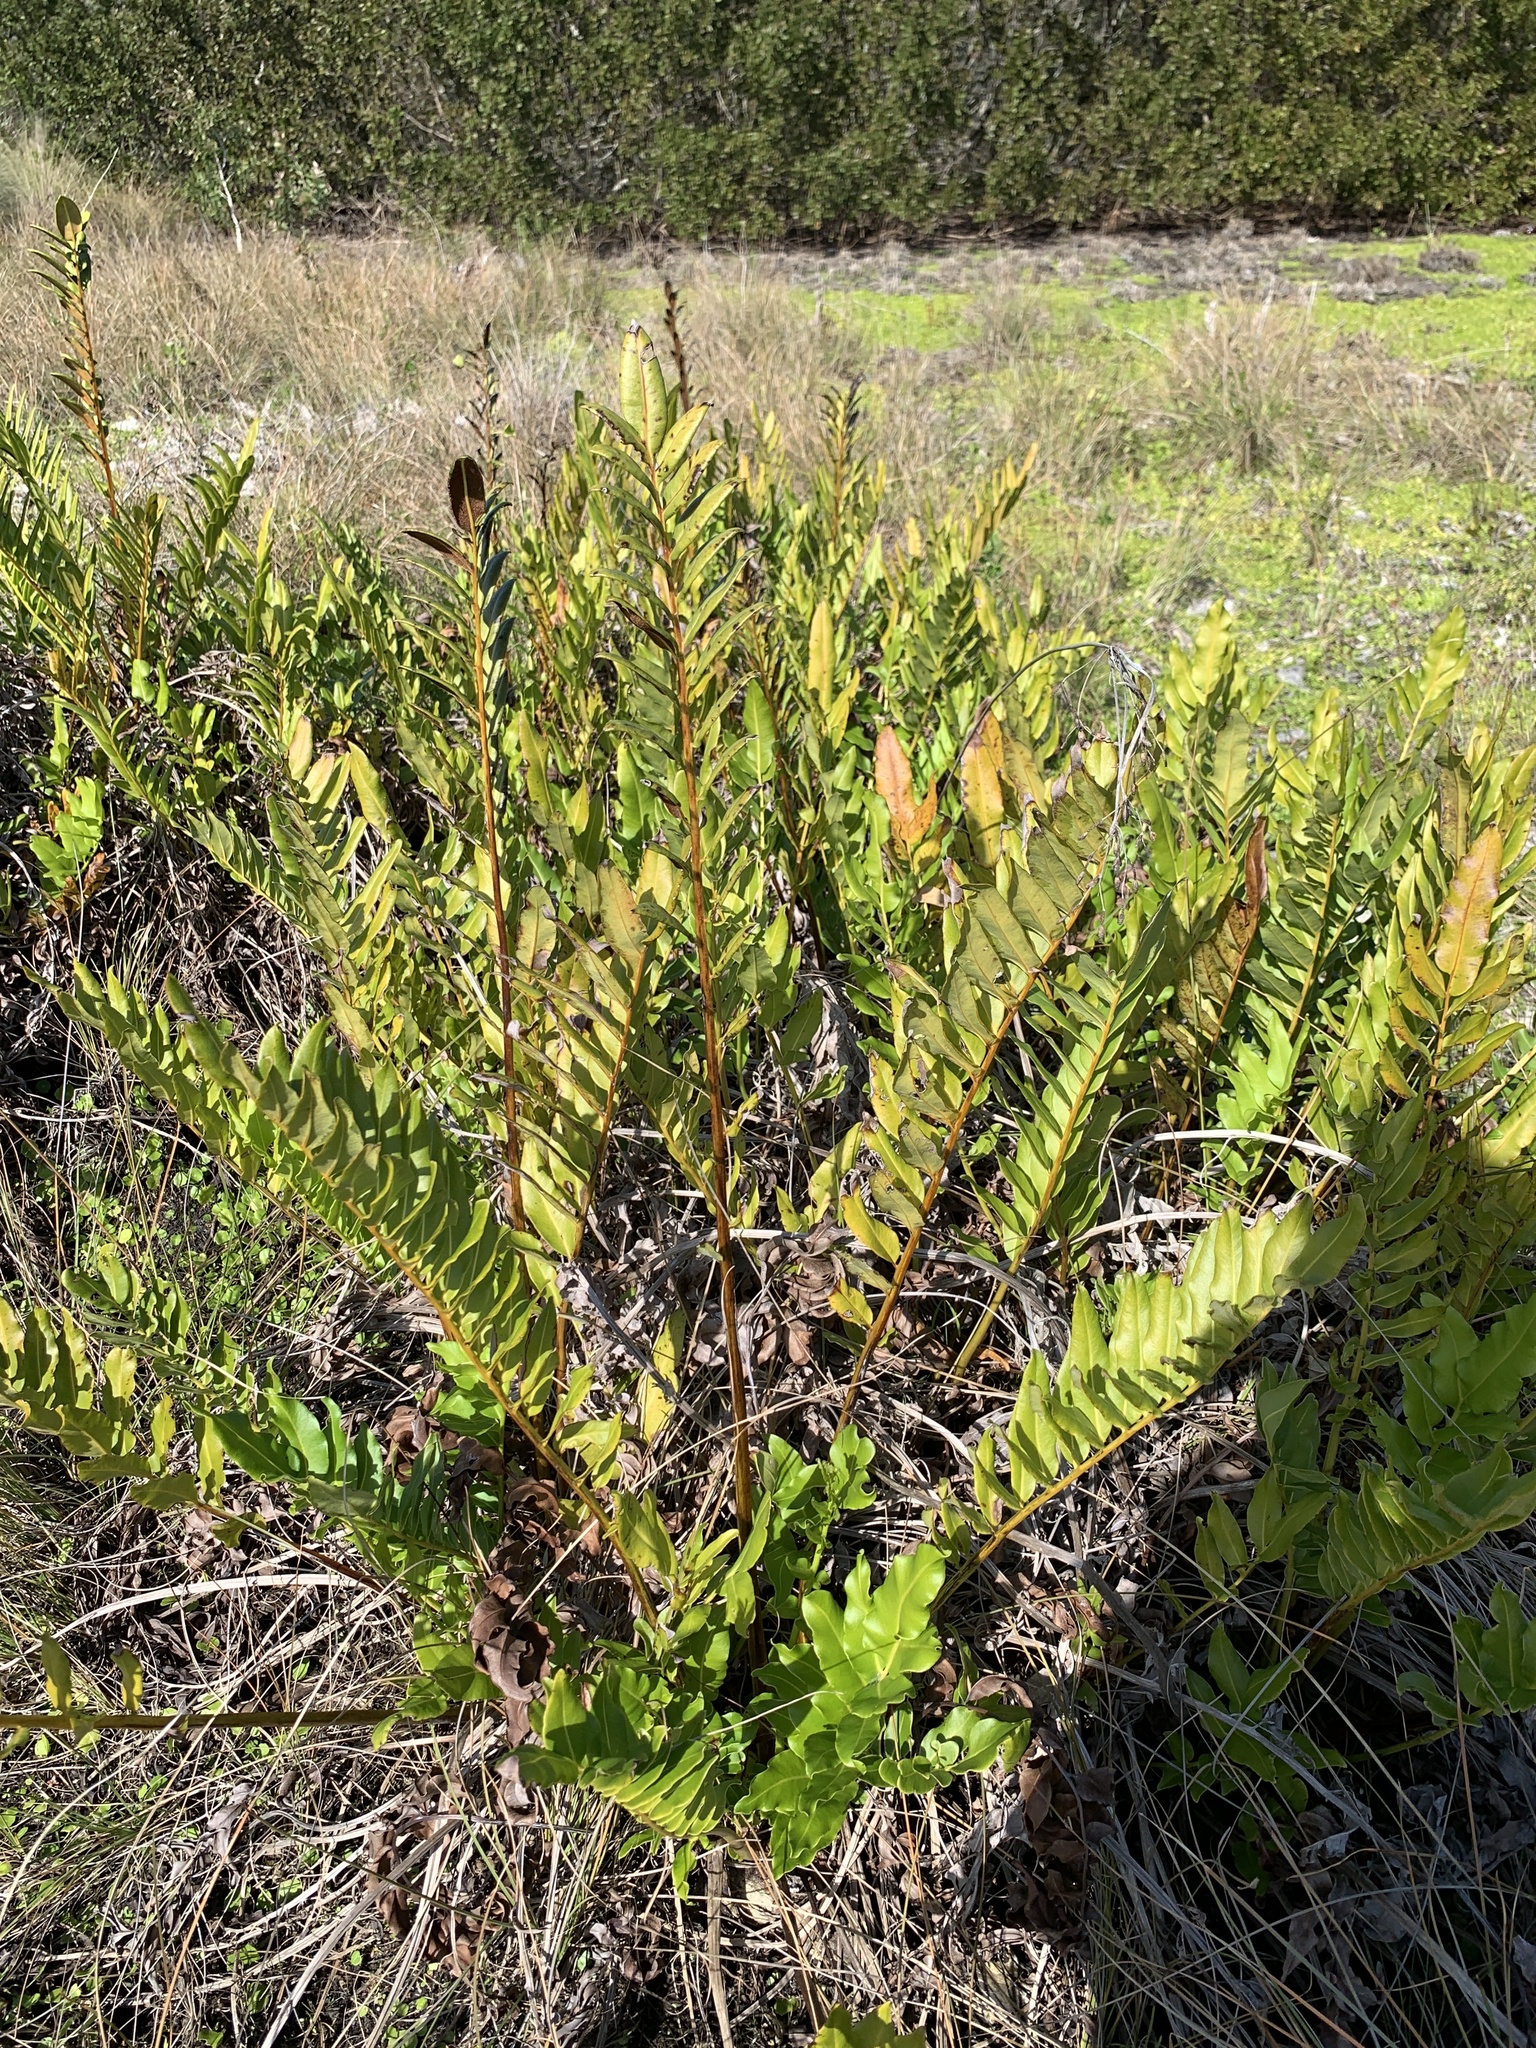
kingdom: Plantae
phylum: Tracheophyta
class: Polypodiopsida
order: Polypodiales
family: Pteridaceae
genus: Acrostichum
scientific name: Acrostichum danaeifolium
